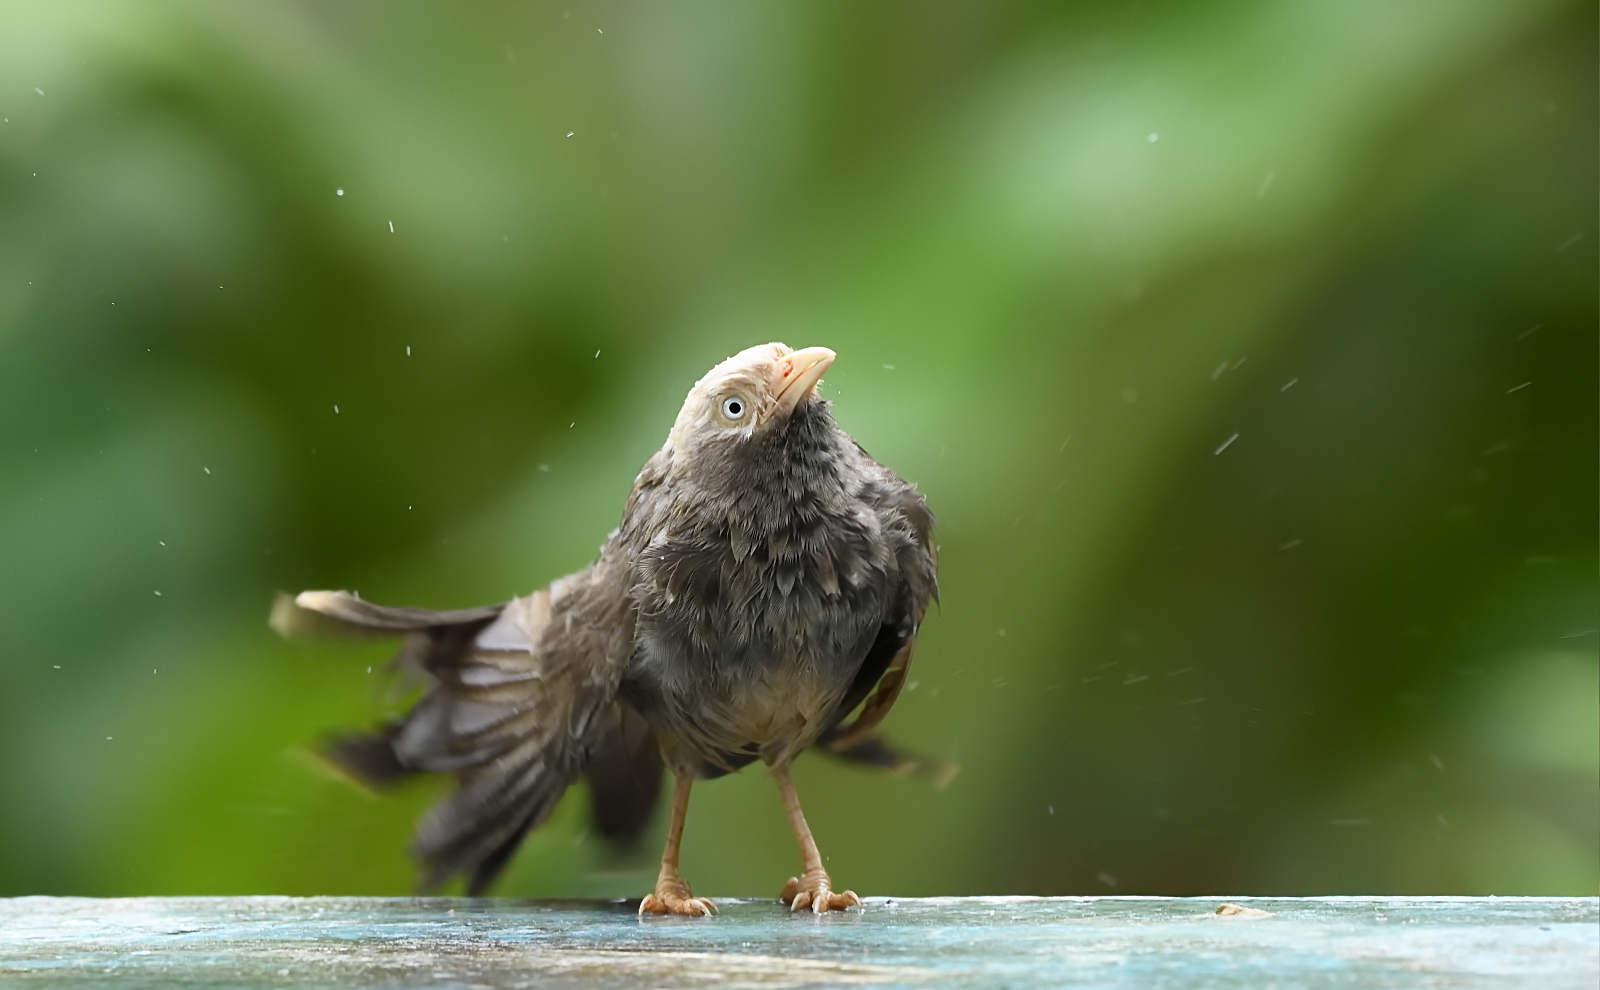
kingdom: Animalia
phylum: Chordata
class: Aves
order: Passeriformes
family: Leiothrichidae
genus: Turdoides
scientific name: Turdoides affinis
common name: Yellow-billed babbler
